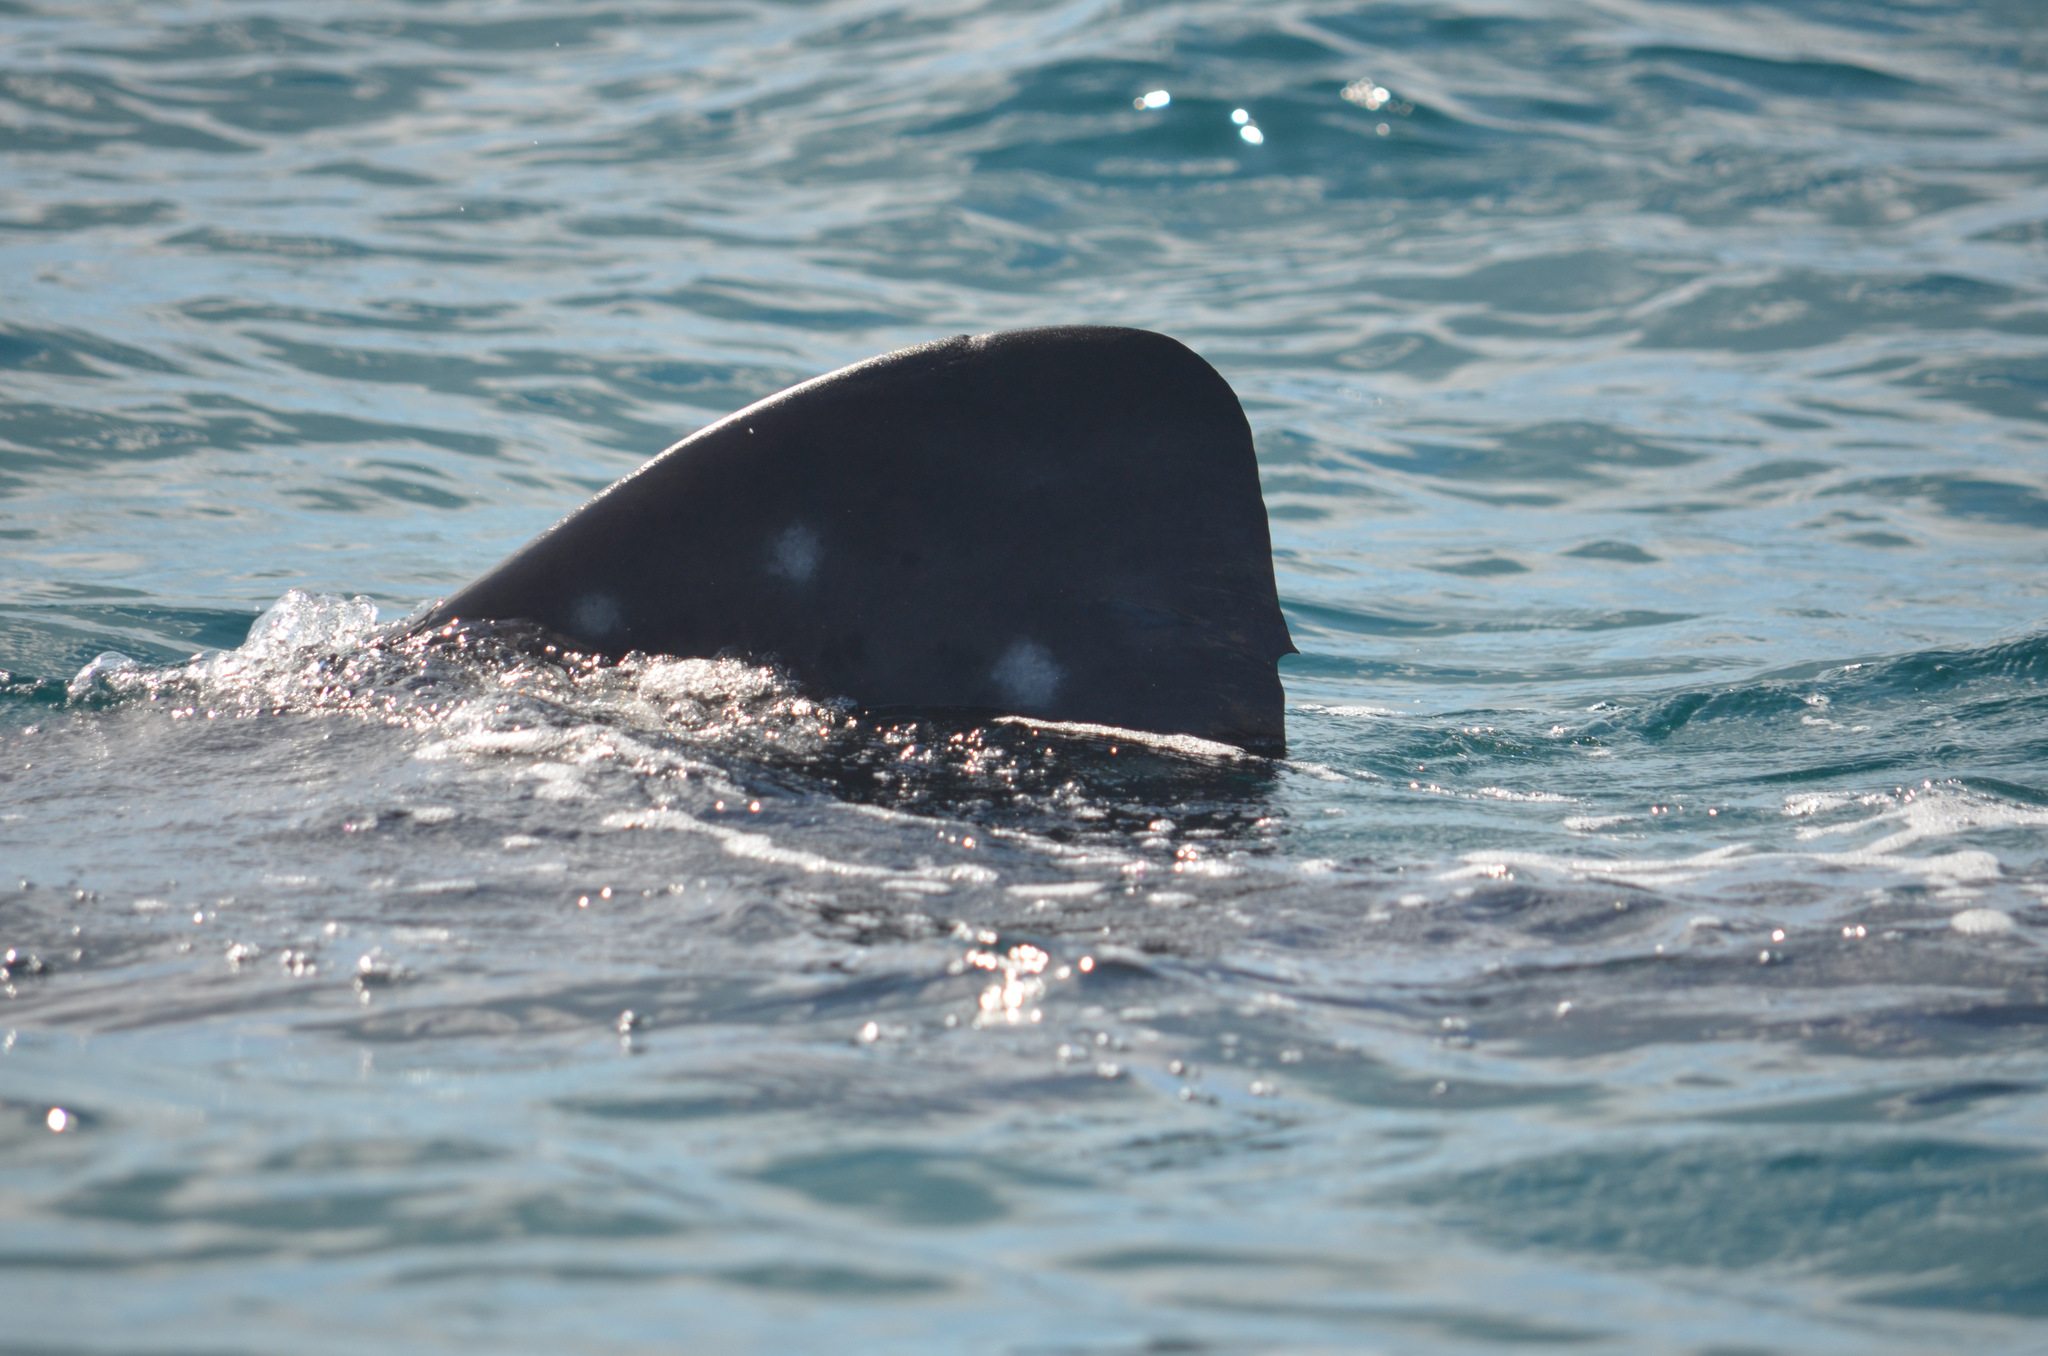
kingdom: Animalia
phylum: Chordata
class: Elasmobranchii
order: Orectolobiformes
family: Rhincodontidae
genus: Rhincodon
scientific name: Rhincodon typus
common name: Whale shark
